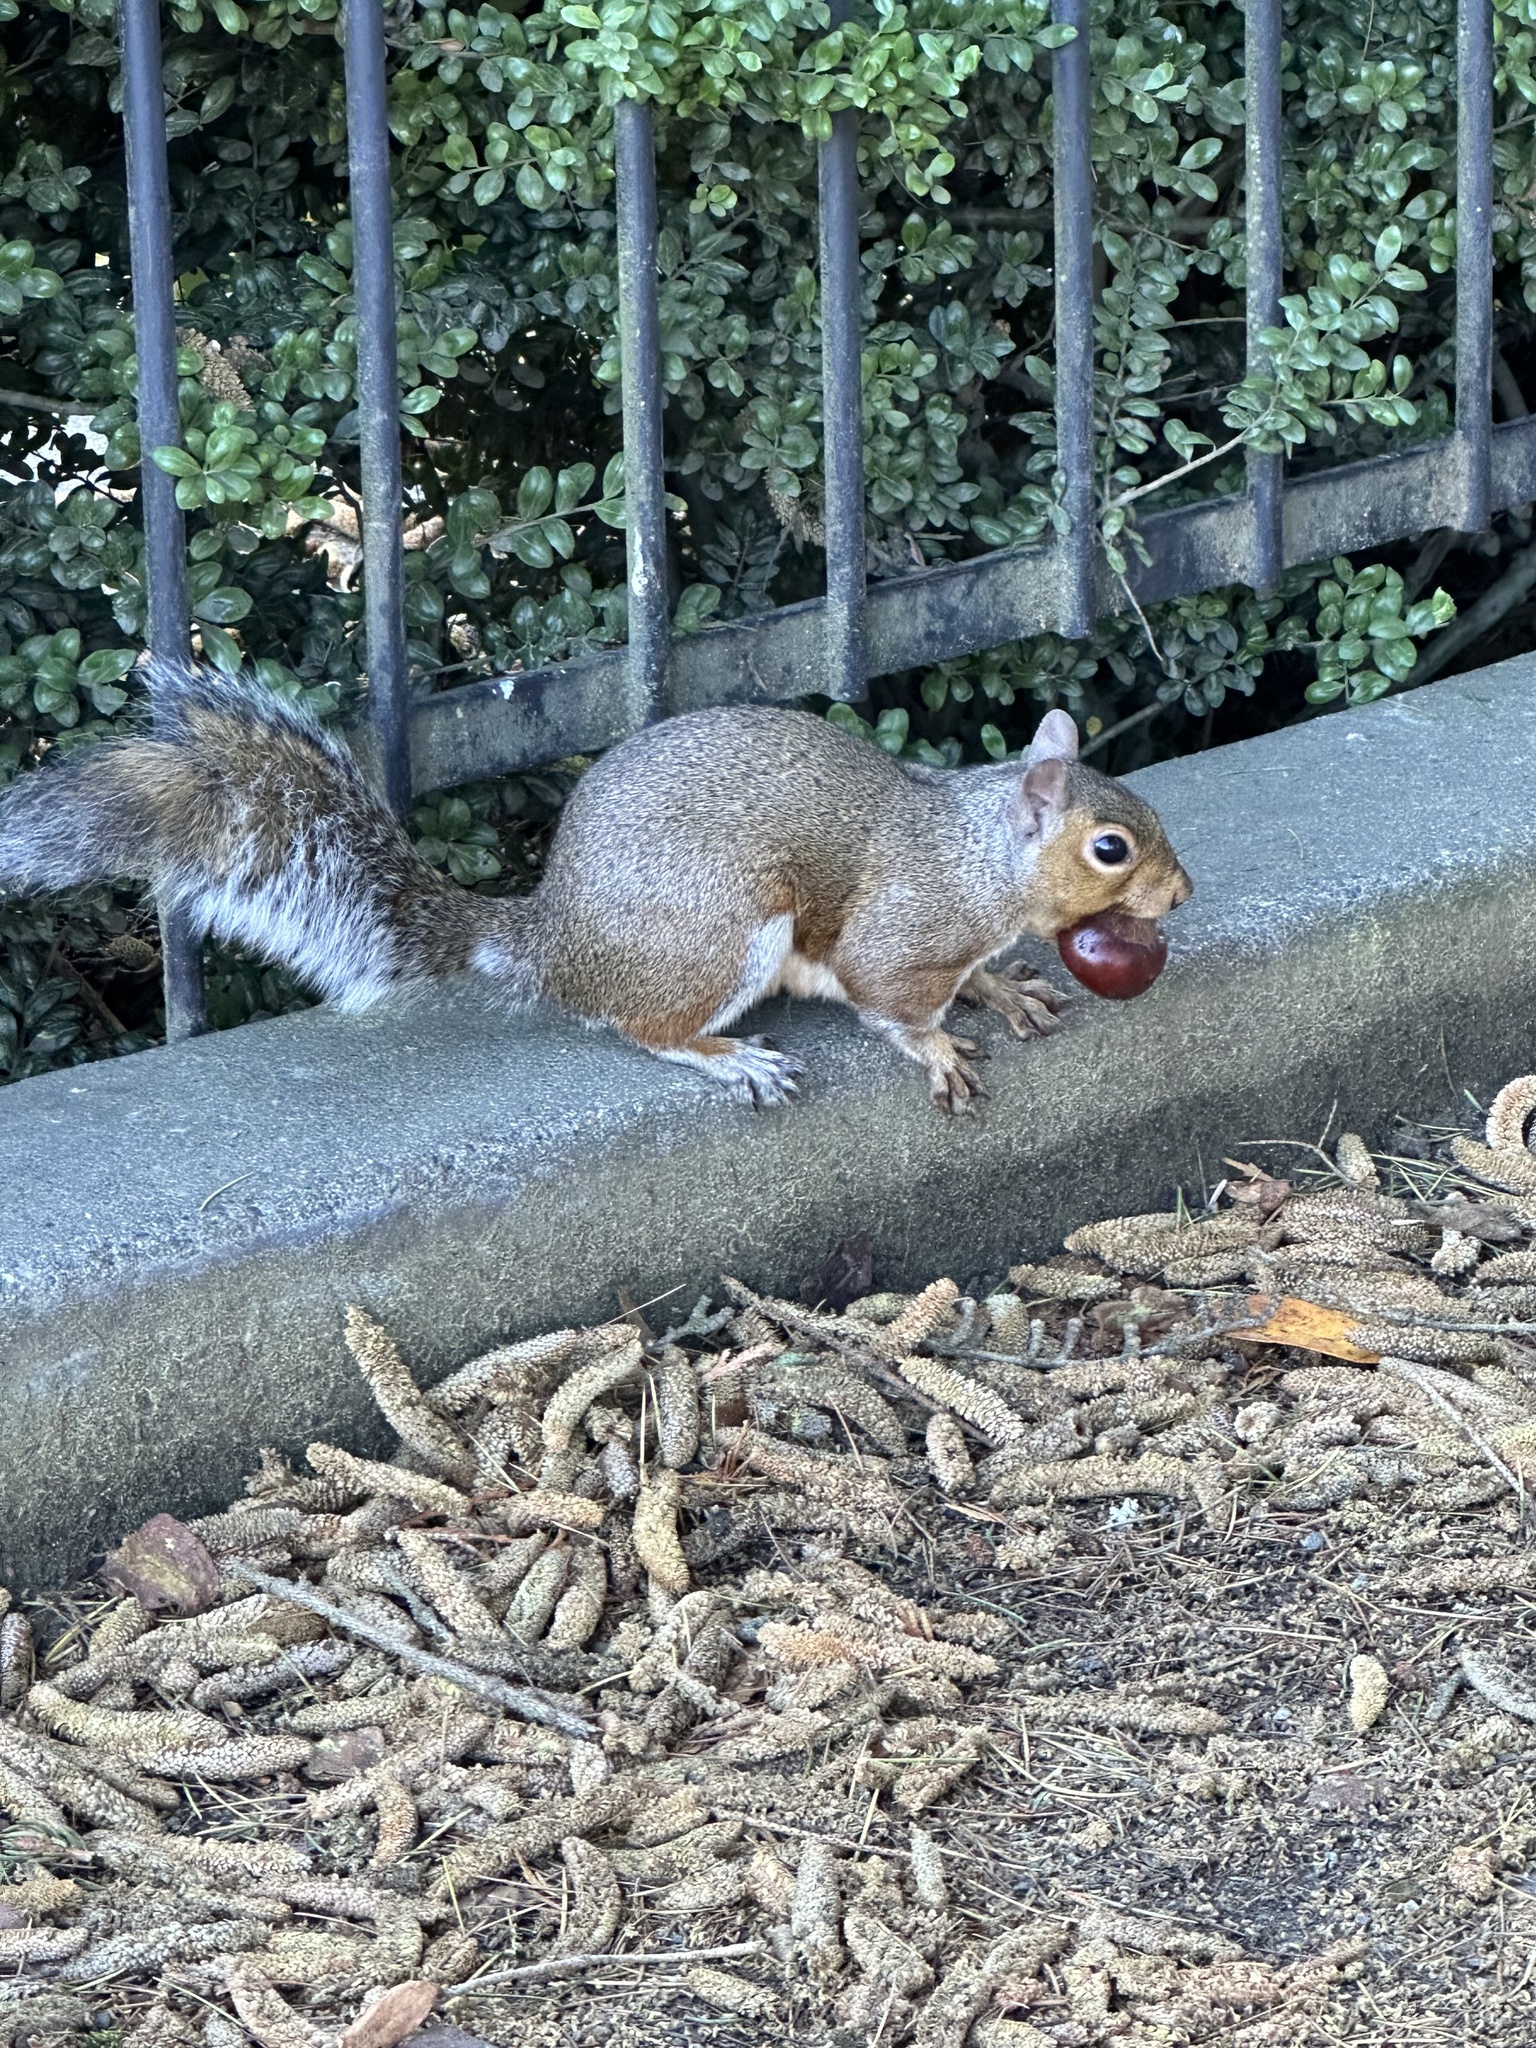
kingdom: Animalia
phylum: Chordata
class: Mammalia
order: Rodentia
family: Sciuridae
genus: Sciurus
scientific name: Sciurus carolinensis
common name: Eastern gray squirrel
